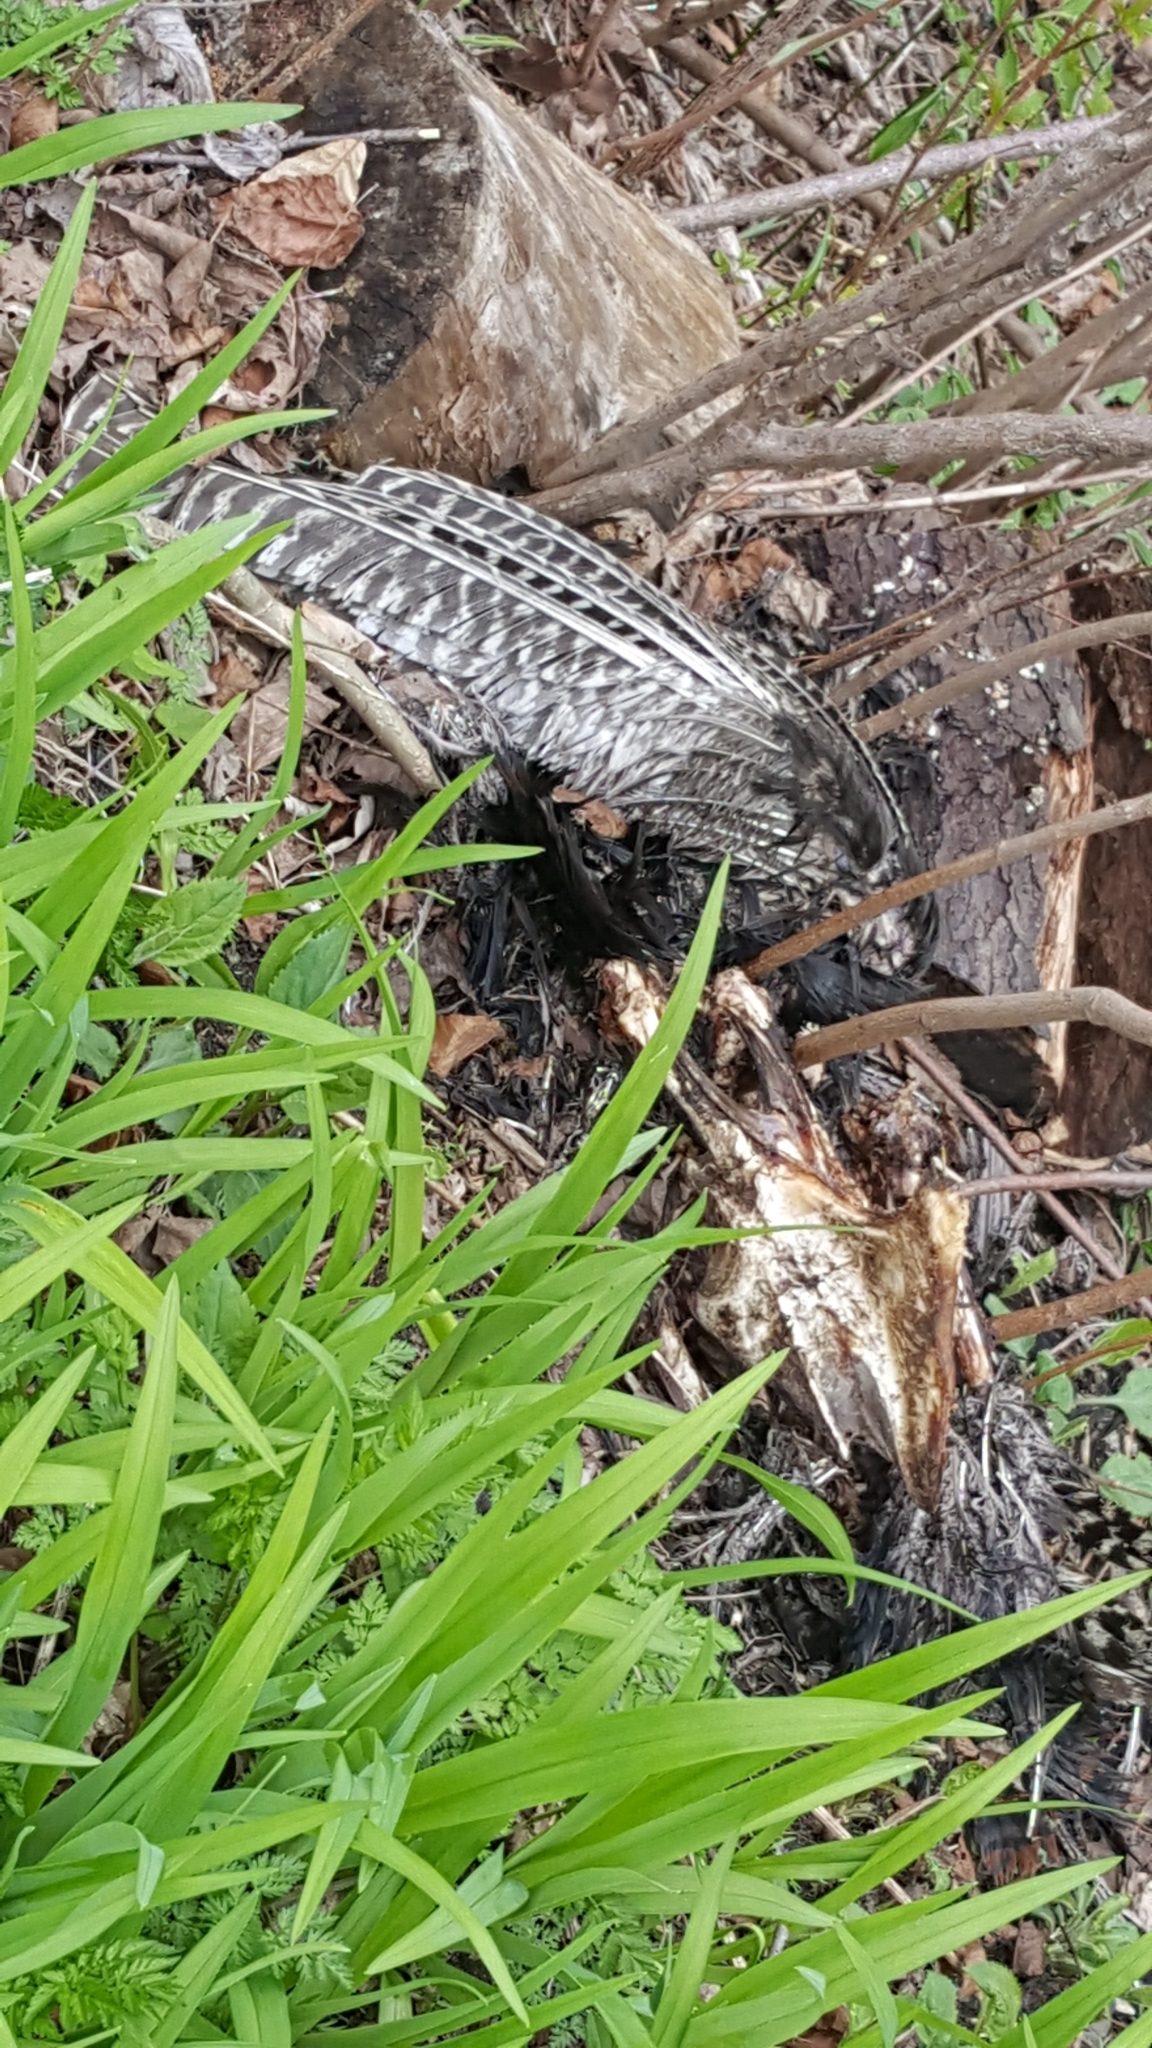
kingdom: Animalia
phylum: Chordata
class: Aves
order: Galliformes
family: Phasianidae
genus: Meleagris
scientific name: Meleagris gallopavo
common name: Wild turkey
